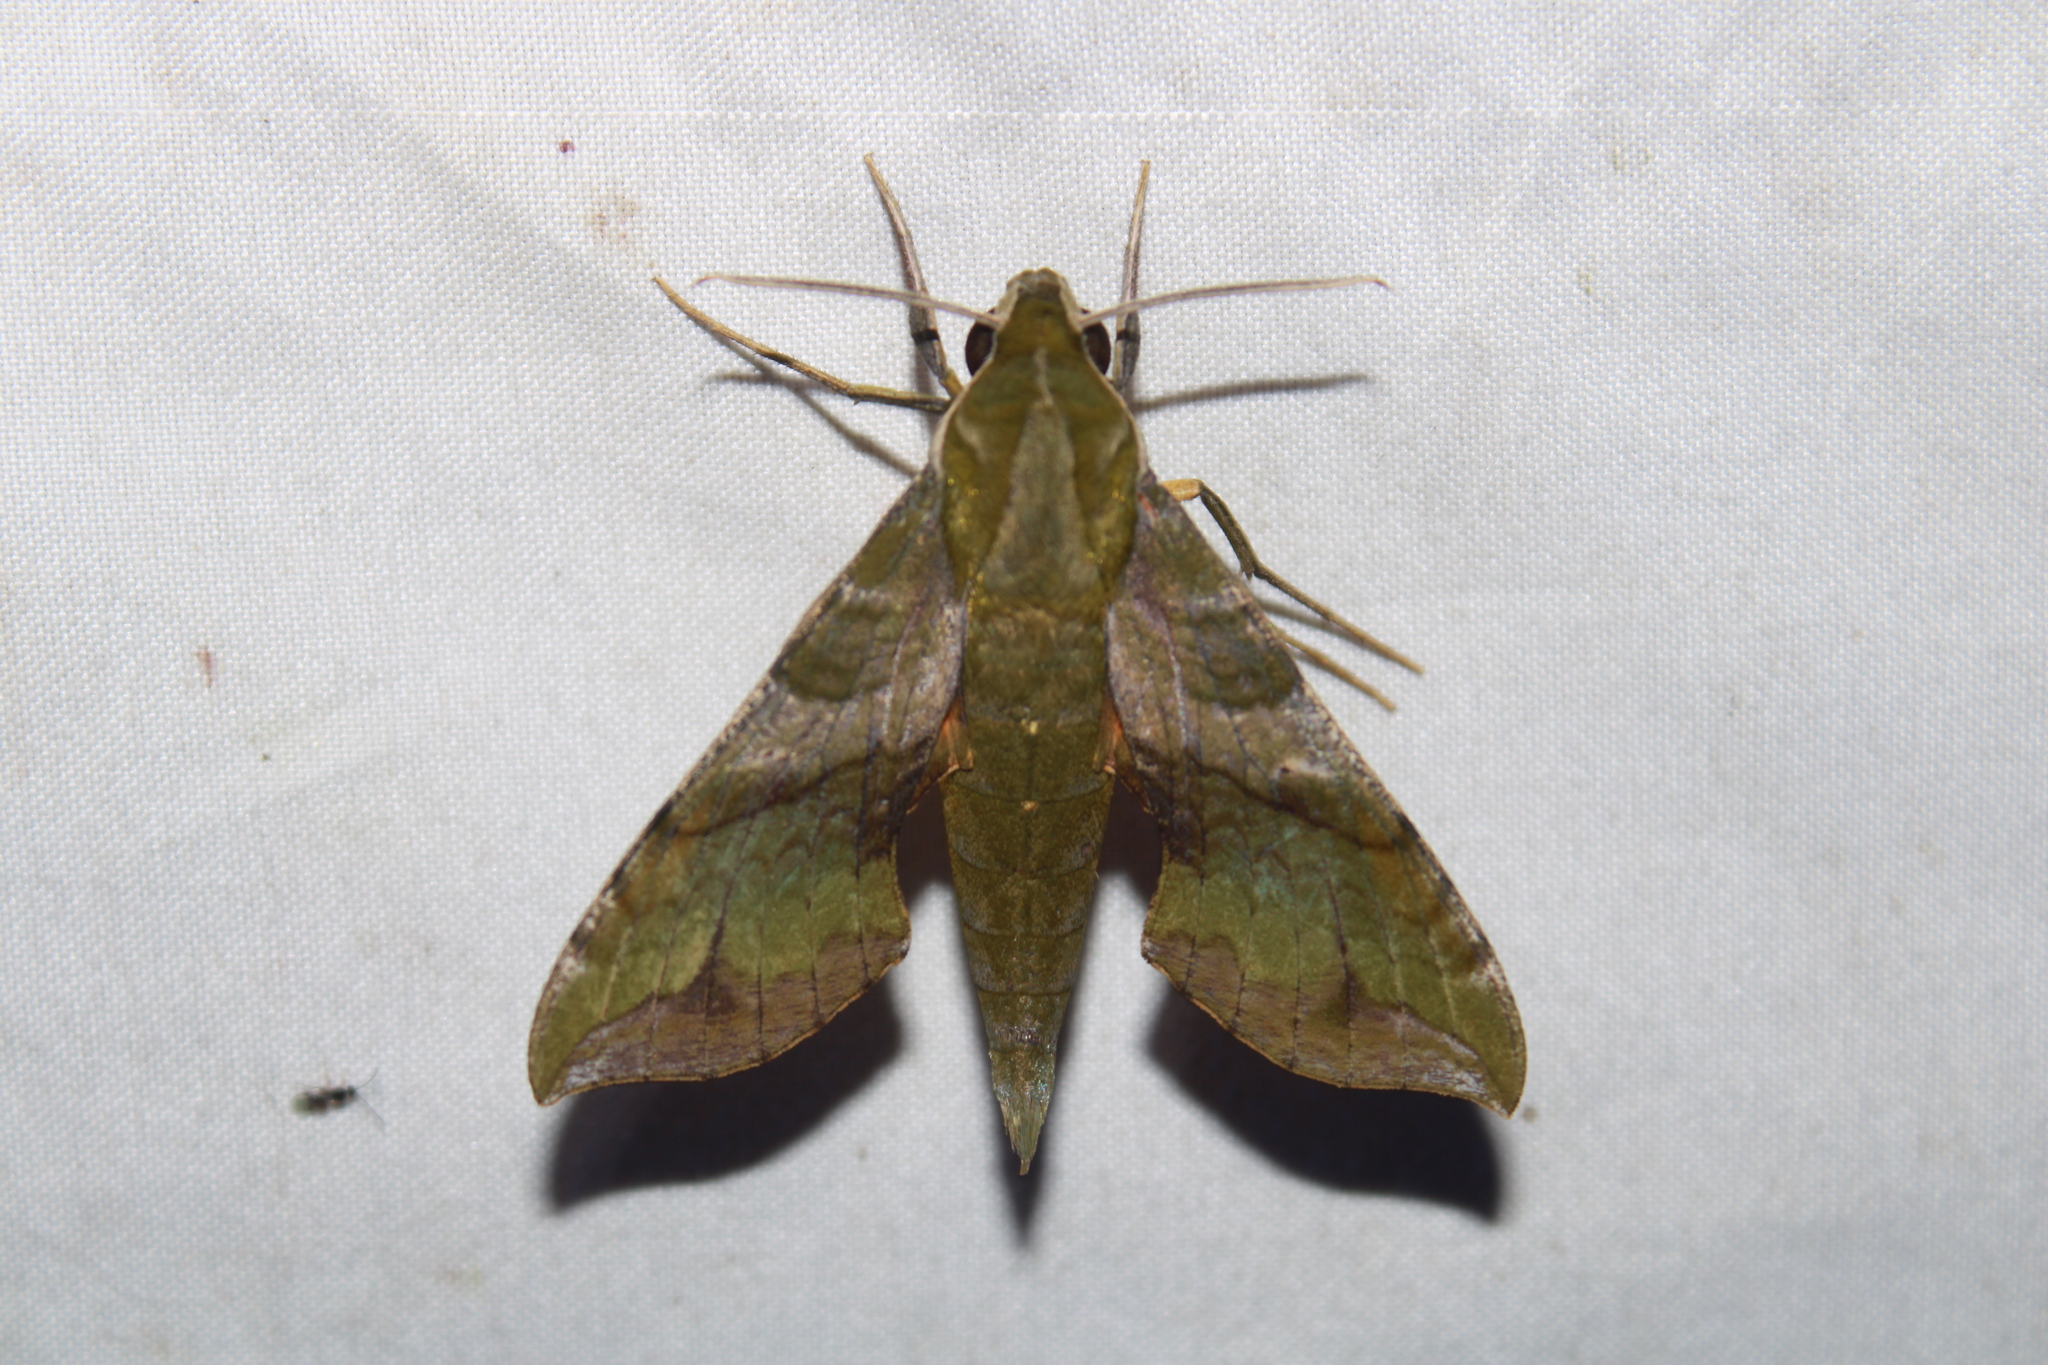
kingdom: Animalia
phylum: Arthropoda
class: Insecta
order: Lepidoptera
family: Sphingidae
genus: Xylophanes
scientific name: Xylophanes pluto
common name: Pluto sphinx
